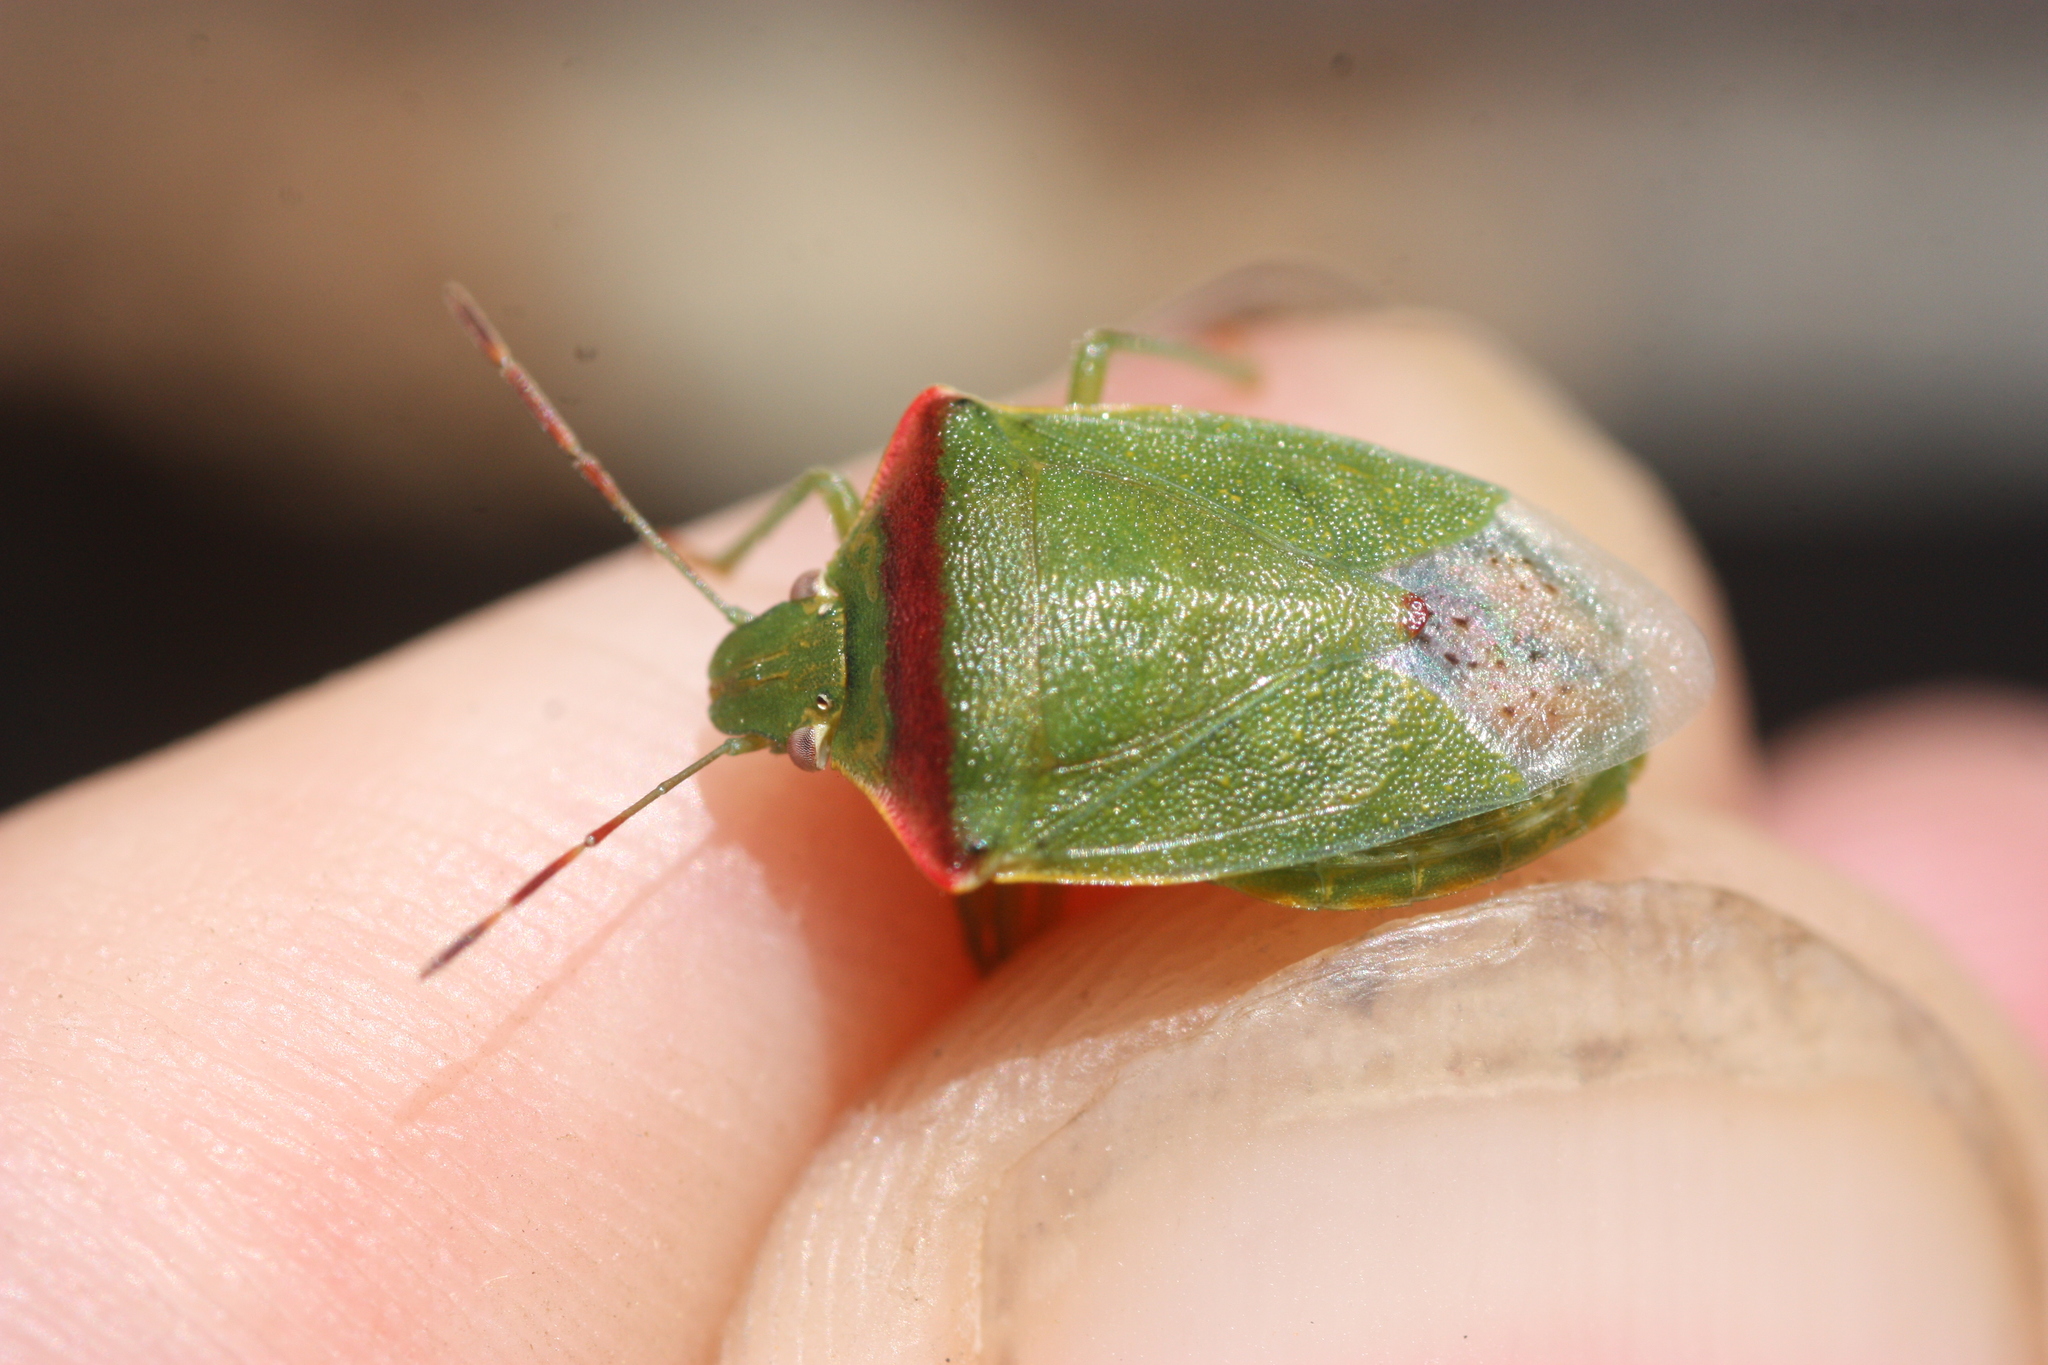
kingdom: Animalia
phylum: Arthropoda
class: Insecta
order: Hemiptera
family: Pentatomidae
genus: Thyanta
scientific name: Thyanta accerra
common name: Stink bug
